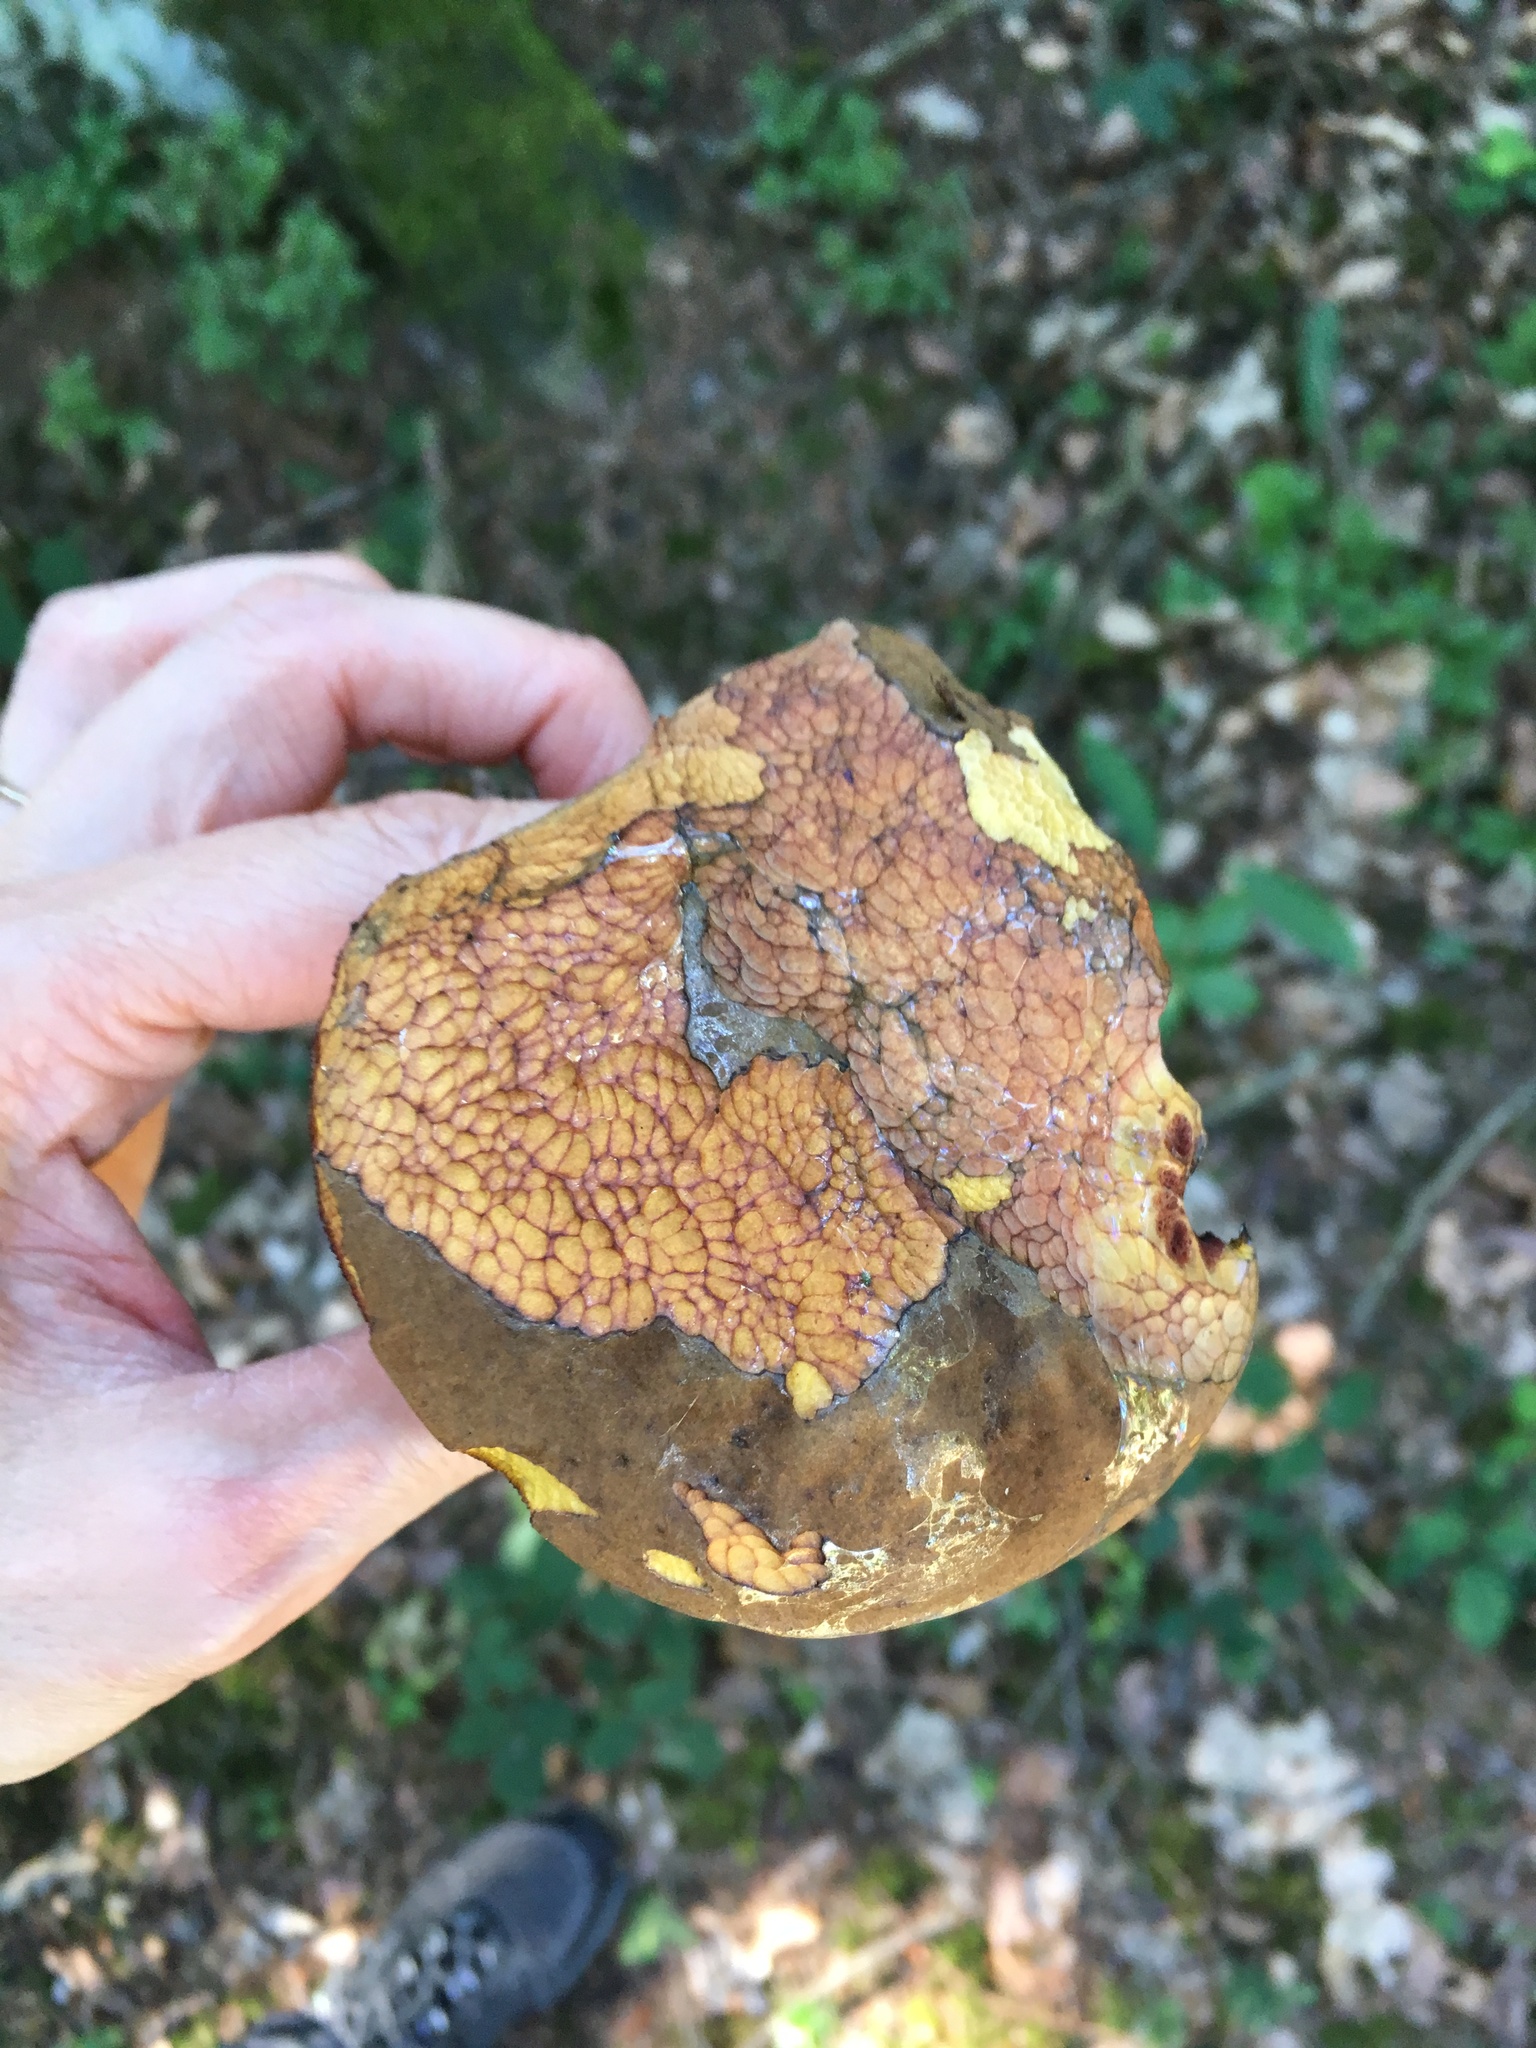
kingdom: Fungi
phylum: Basidiomycota
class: Agaricomycetes
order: Boletales
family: Boletaceae
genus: Neoboletus
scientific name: Neoboletus erythropus
